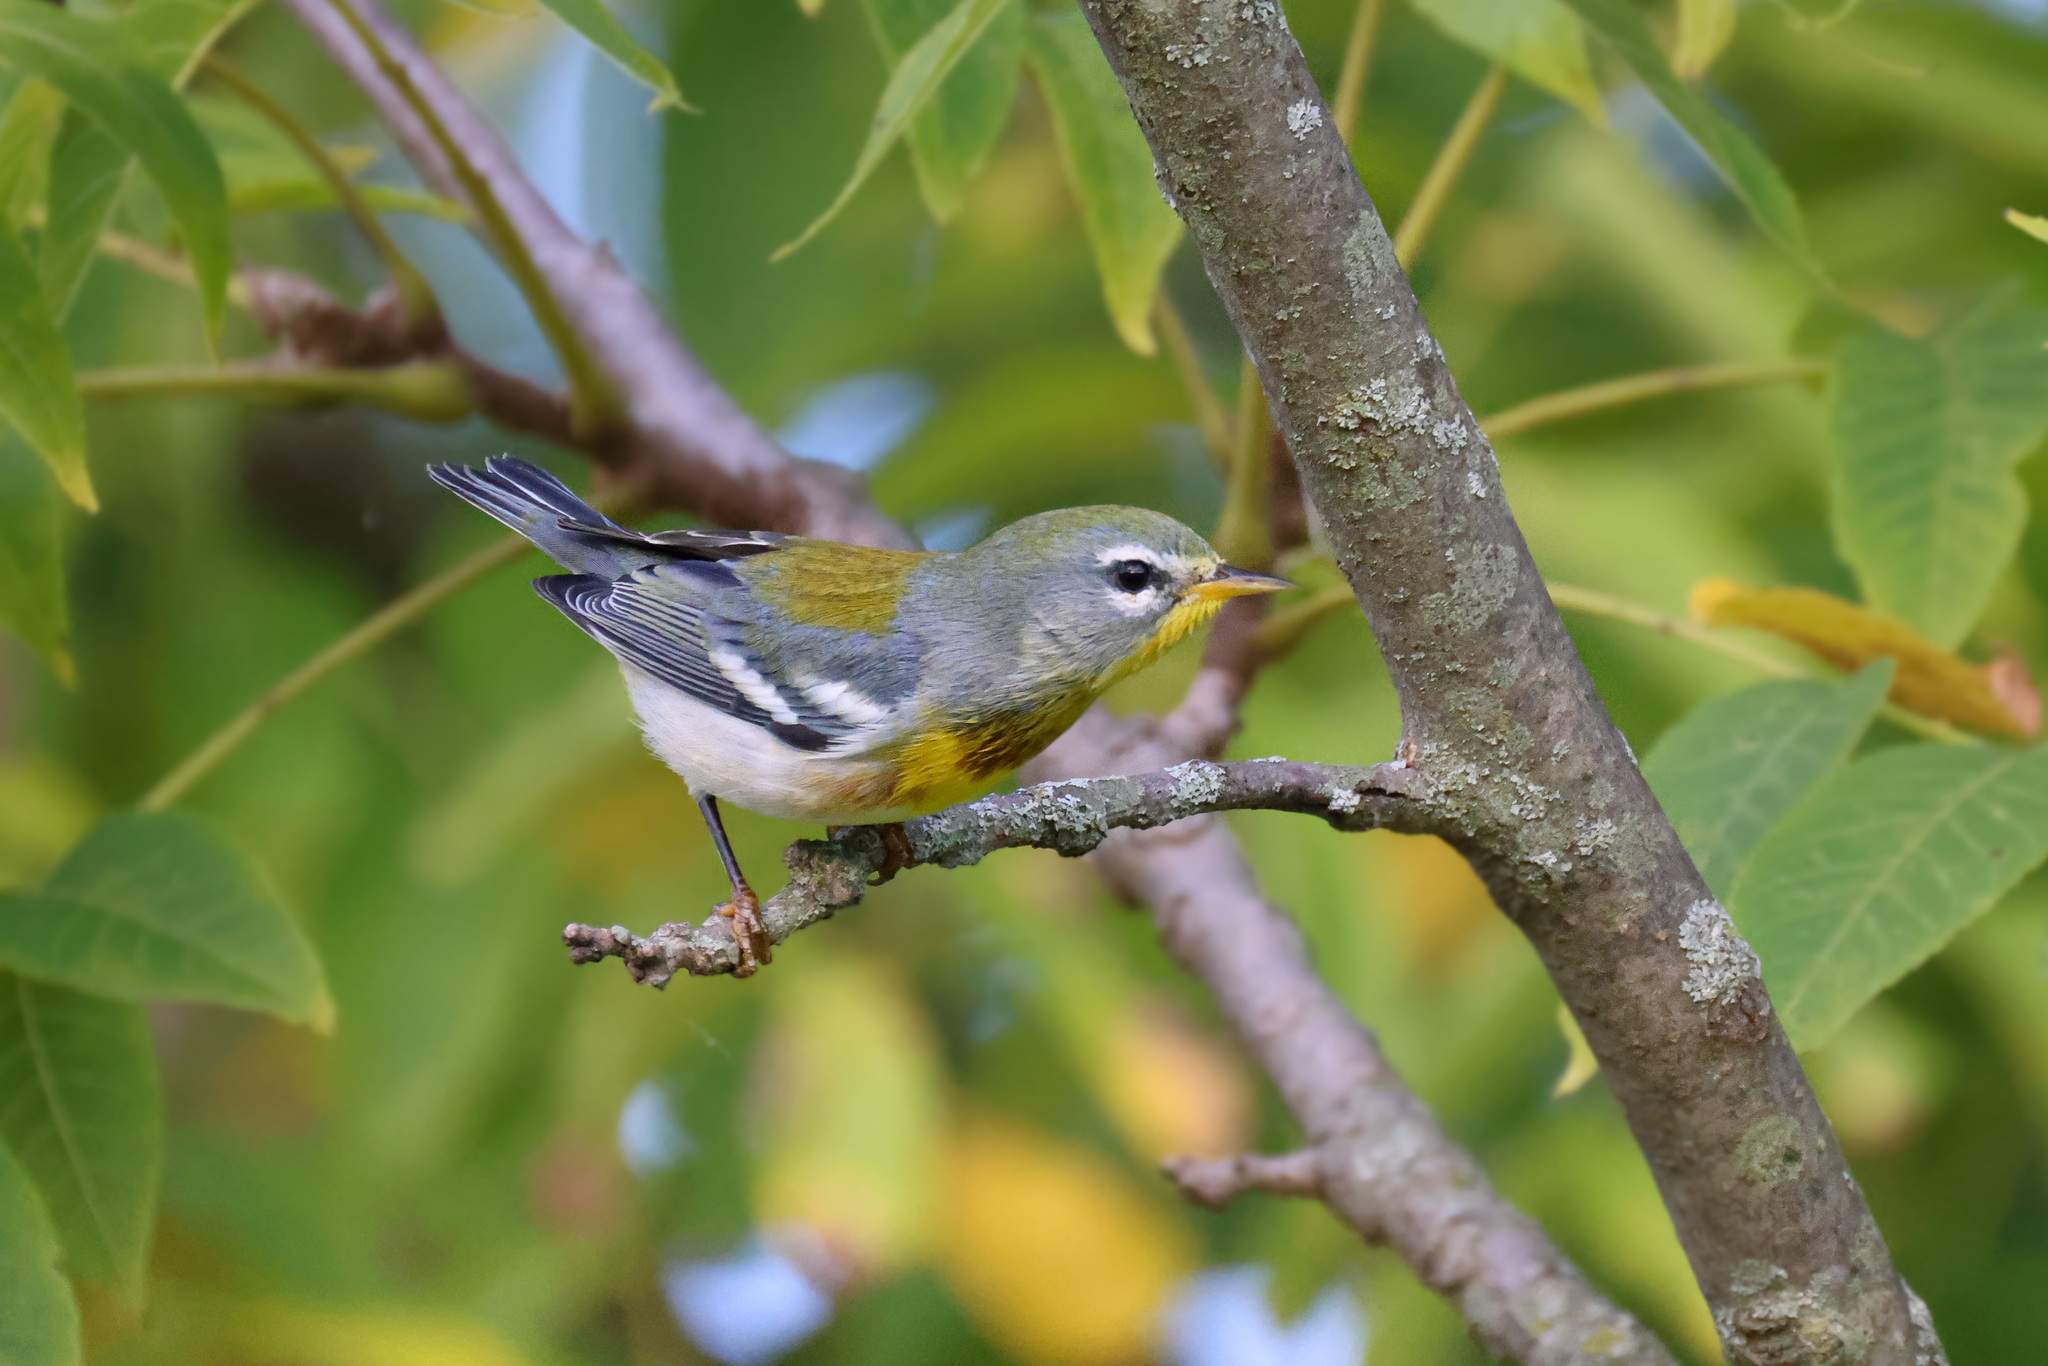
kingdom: Animalia
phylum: Chordata
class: Aves
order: Passeriformes
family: Parulidae
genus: Setophaga
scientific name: Setophaga americana
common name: Northern parula
